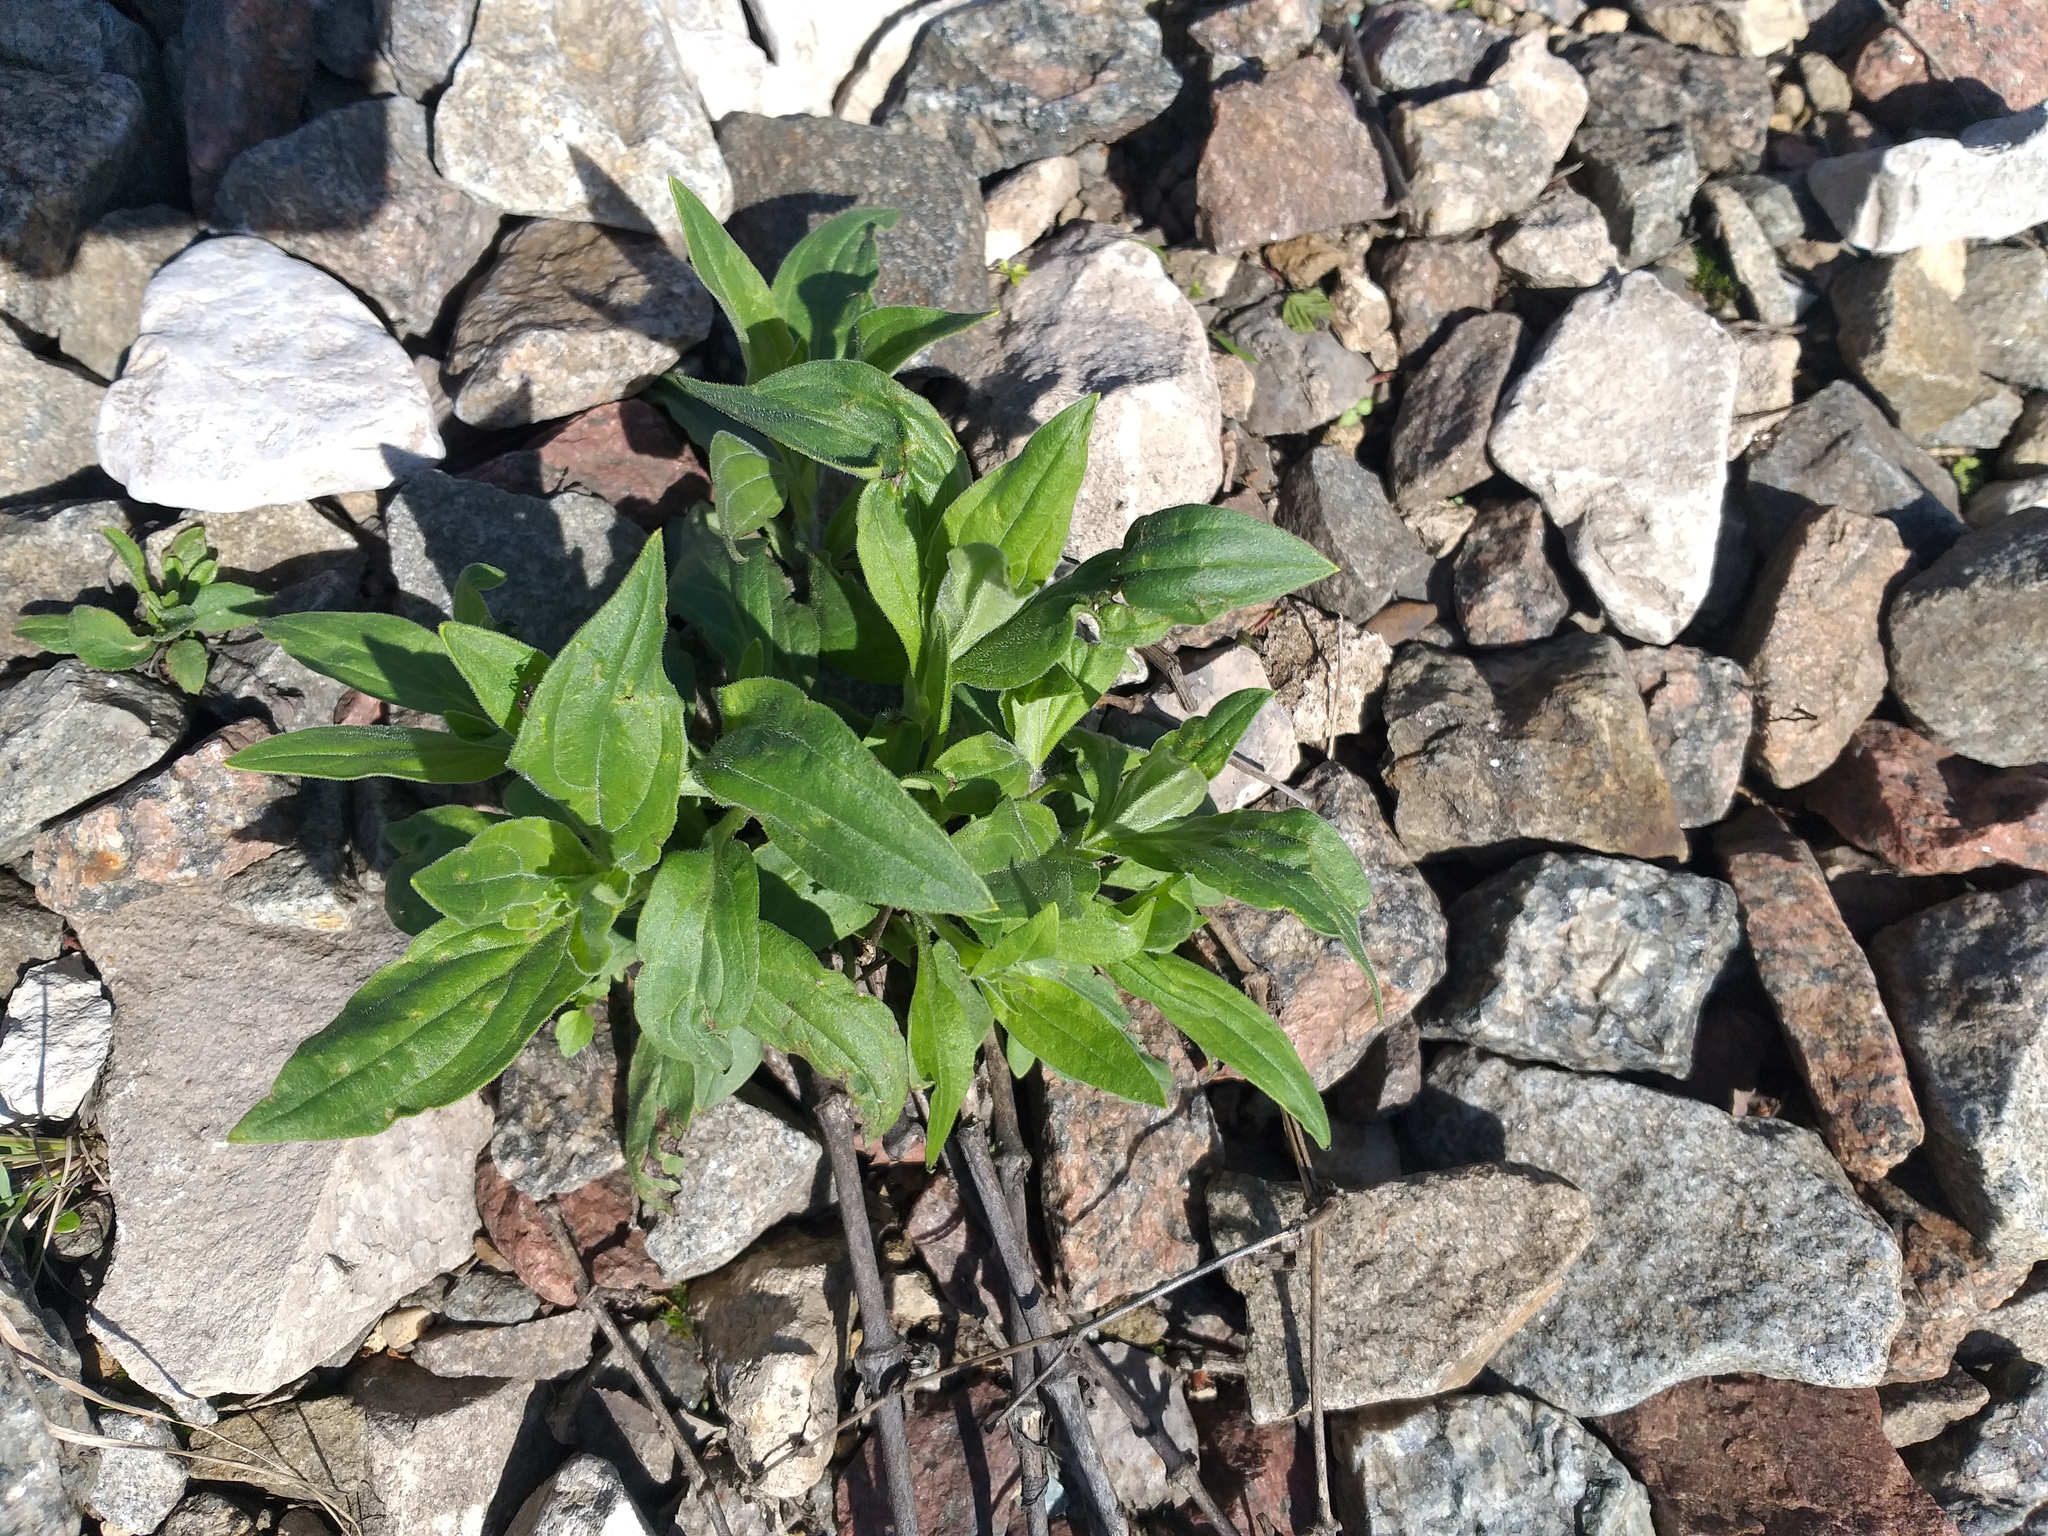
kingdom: Plantae
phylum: Tracheophyta
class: Magnoliopsida
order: Caryophyllales
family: Caryophyllaceae
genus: Silene
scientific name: Silene latifolia
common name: White campion
